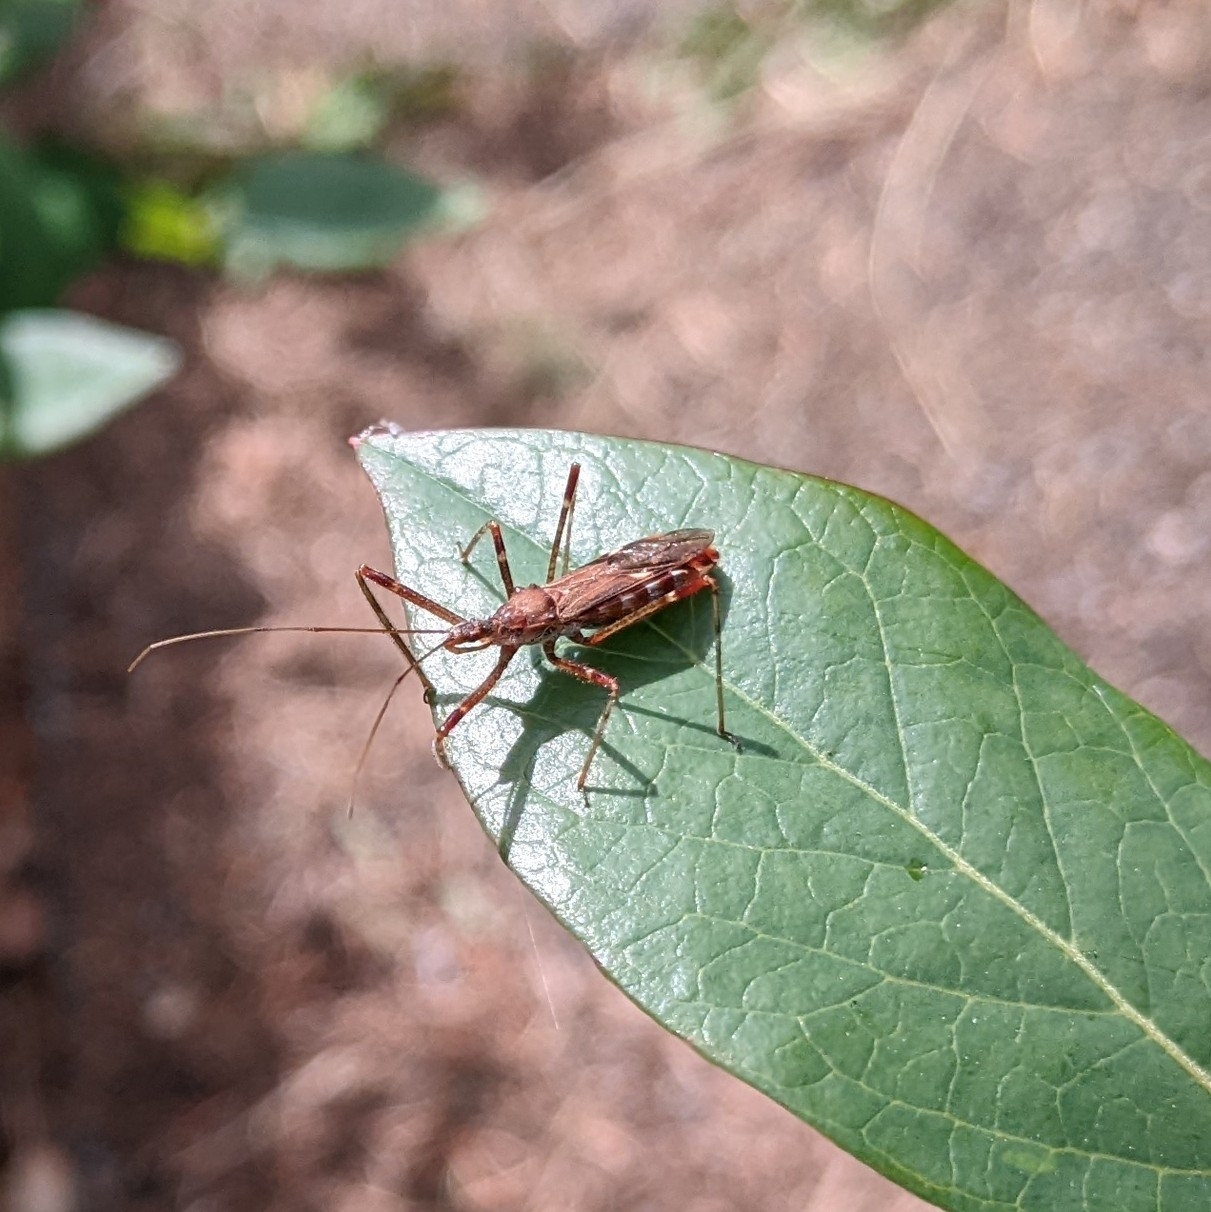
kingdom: Animalia
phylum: Arthropoda
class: Insecta
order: Hemiptera
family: Reduviidae
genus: Zelus
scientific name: Zelus tetracanthus
